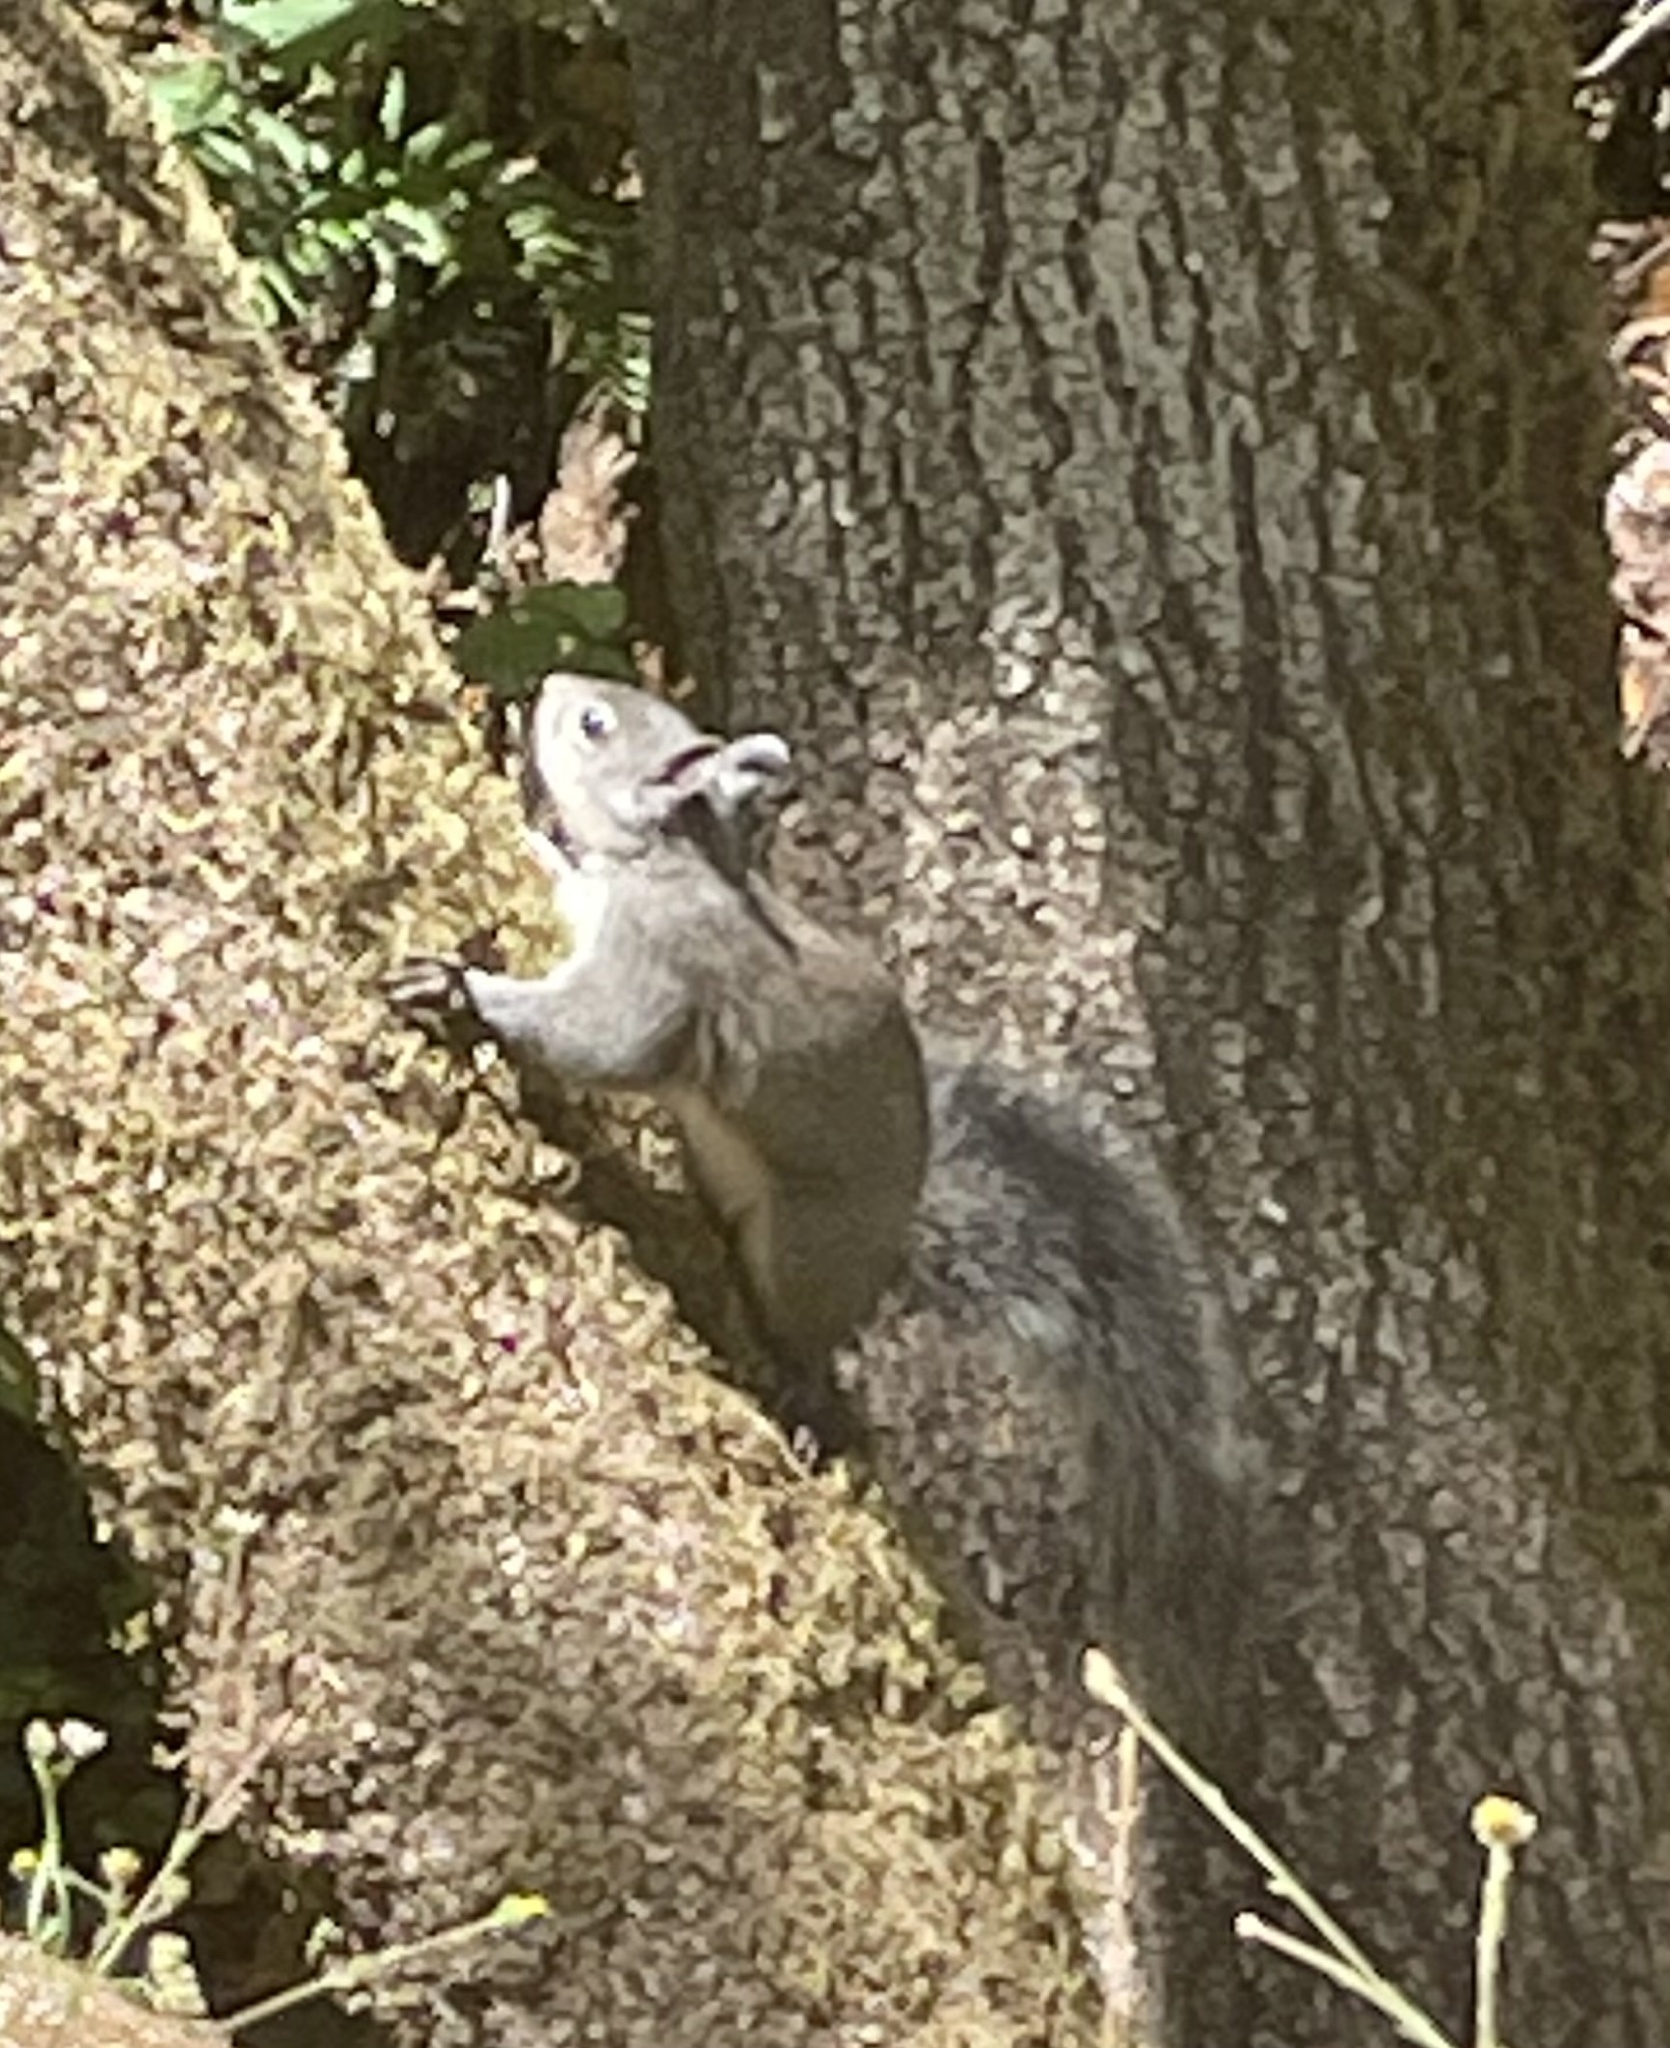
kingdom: Animalia
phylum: Chordata
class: Mammalia
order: Rodentia
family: Sciuridae
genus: Sciurus
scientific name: Sciurus griseus
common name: Western gray squirrel
